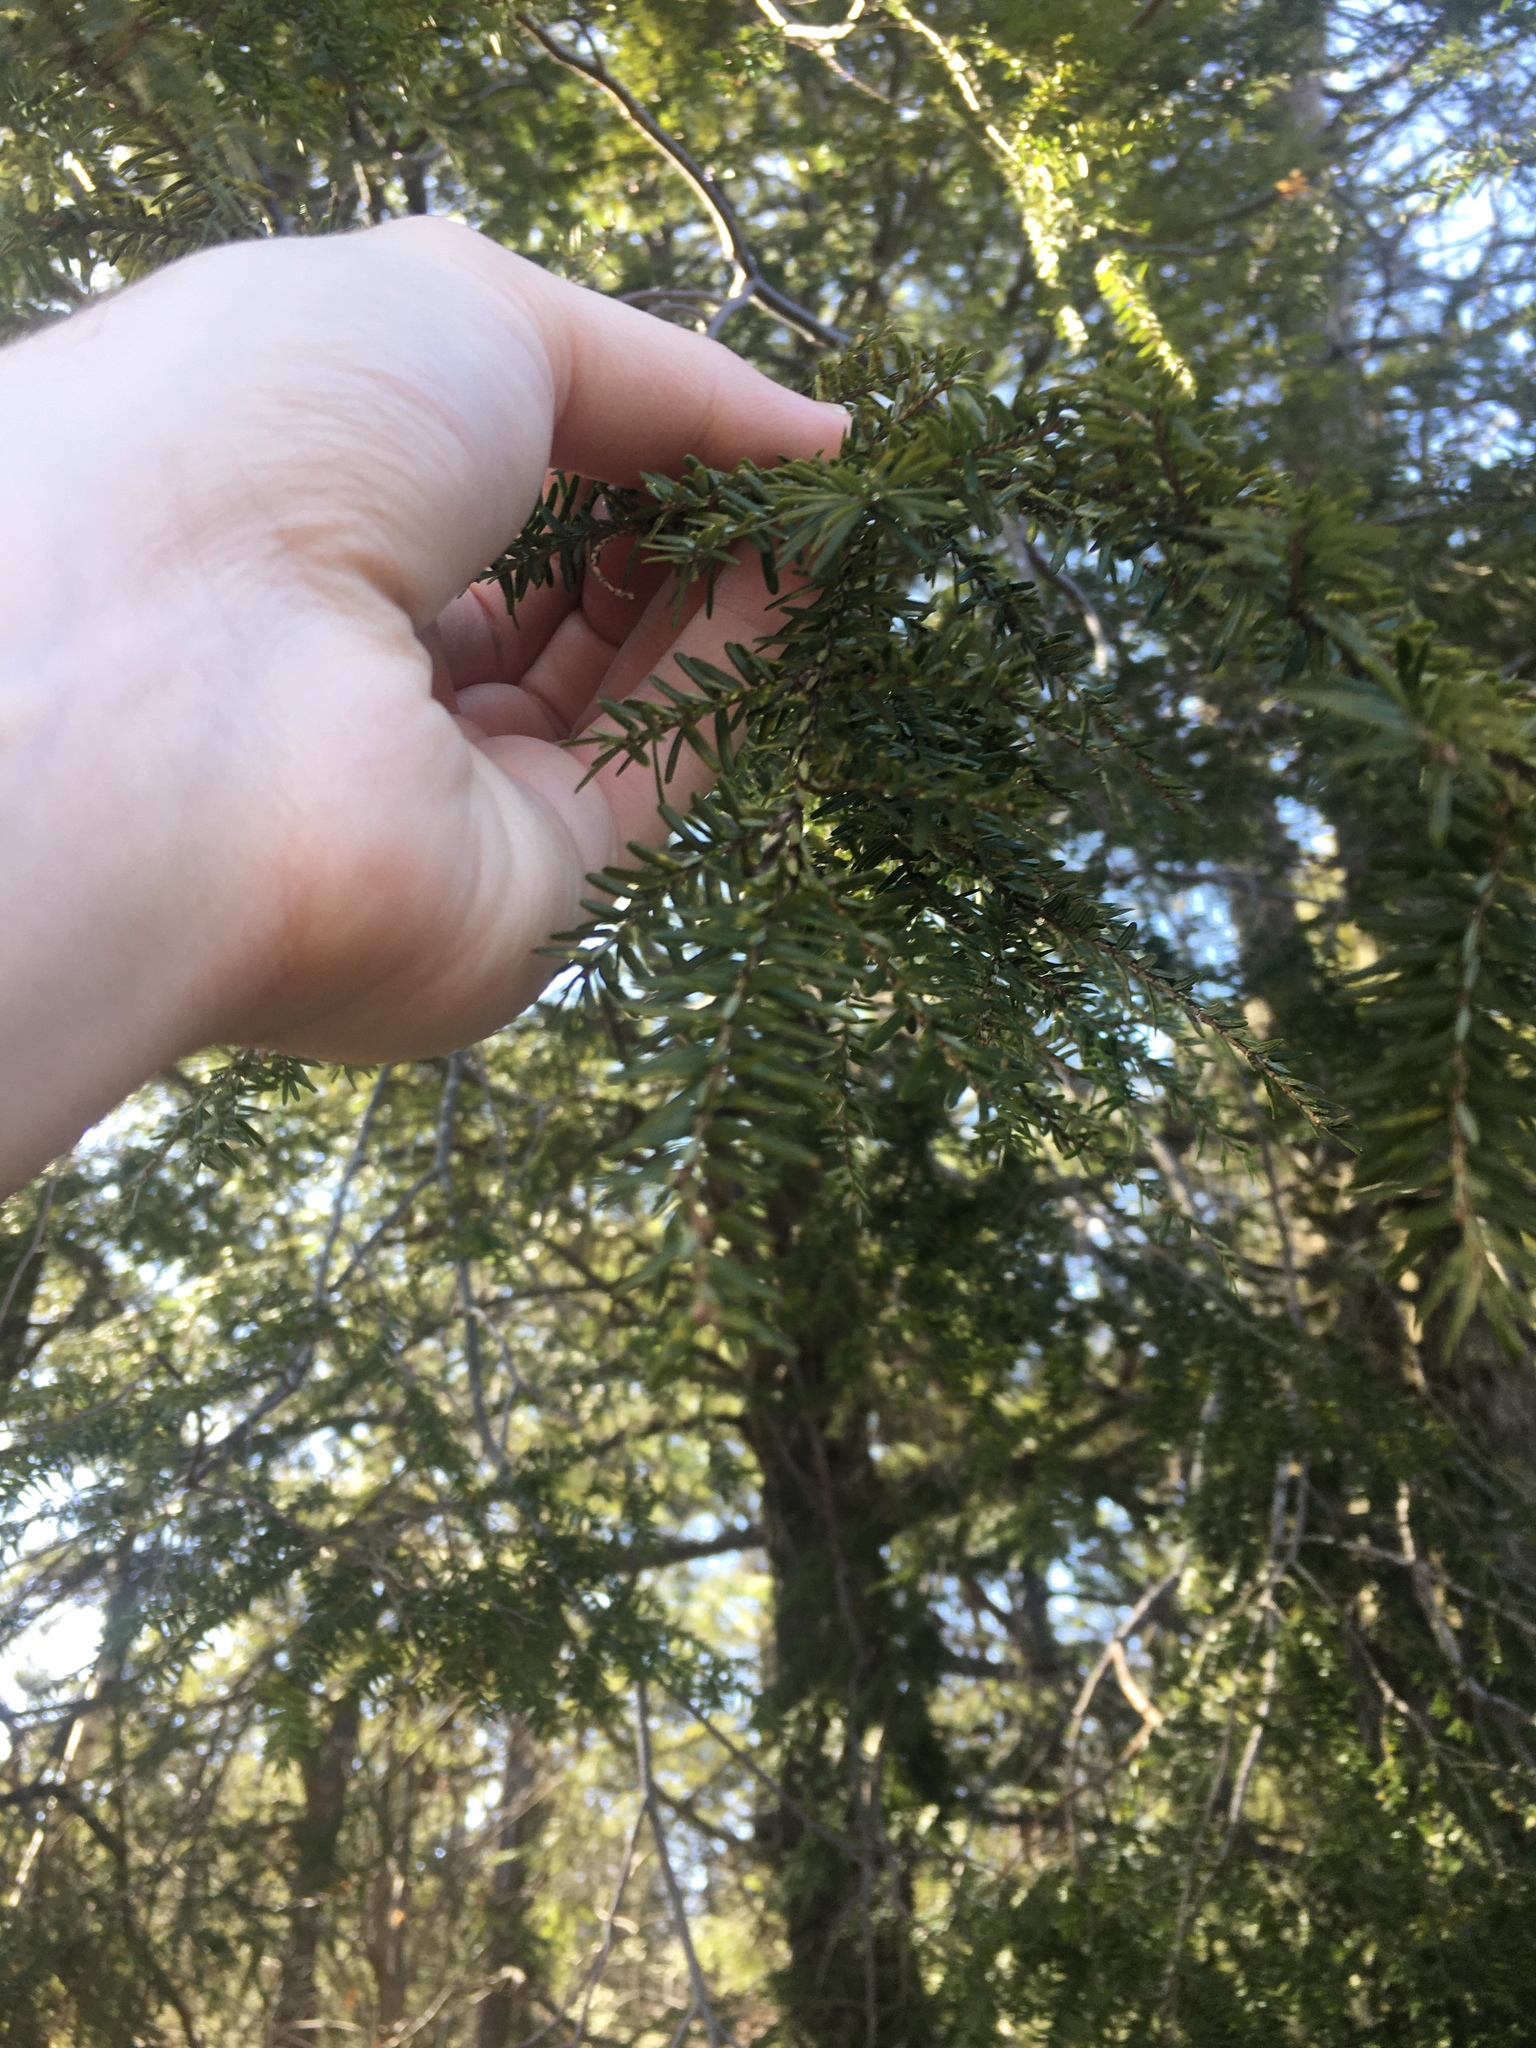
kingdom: Plantae
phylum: Tracheophyta
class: Pinopsida
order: Pinales
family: Pinaceae
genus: Tsuga
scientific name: Tsuga canadensis
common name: Eastern hemlock
